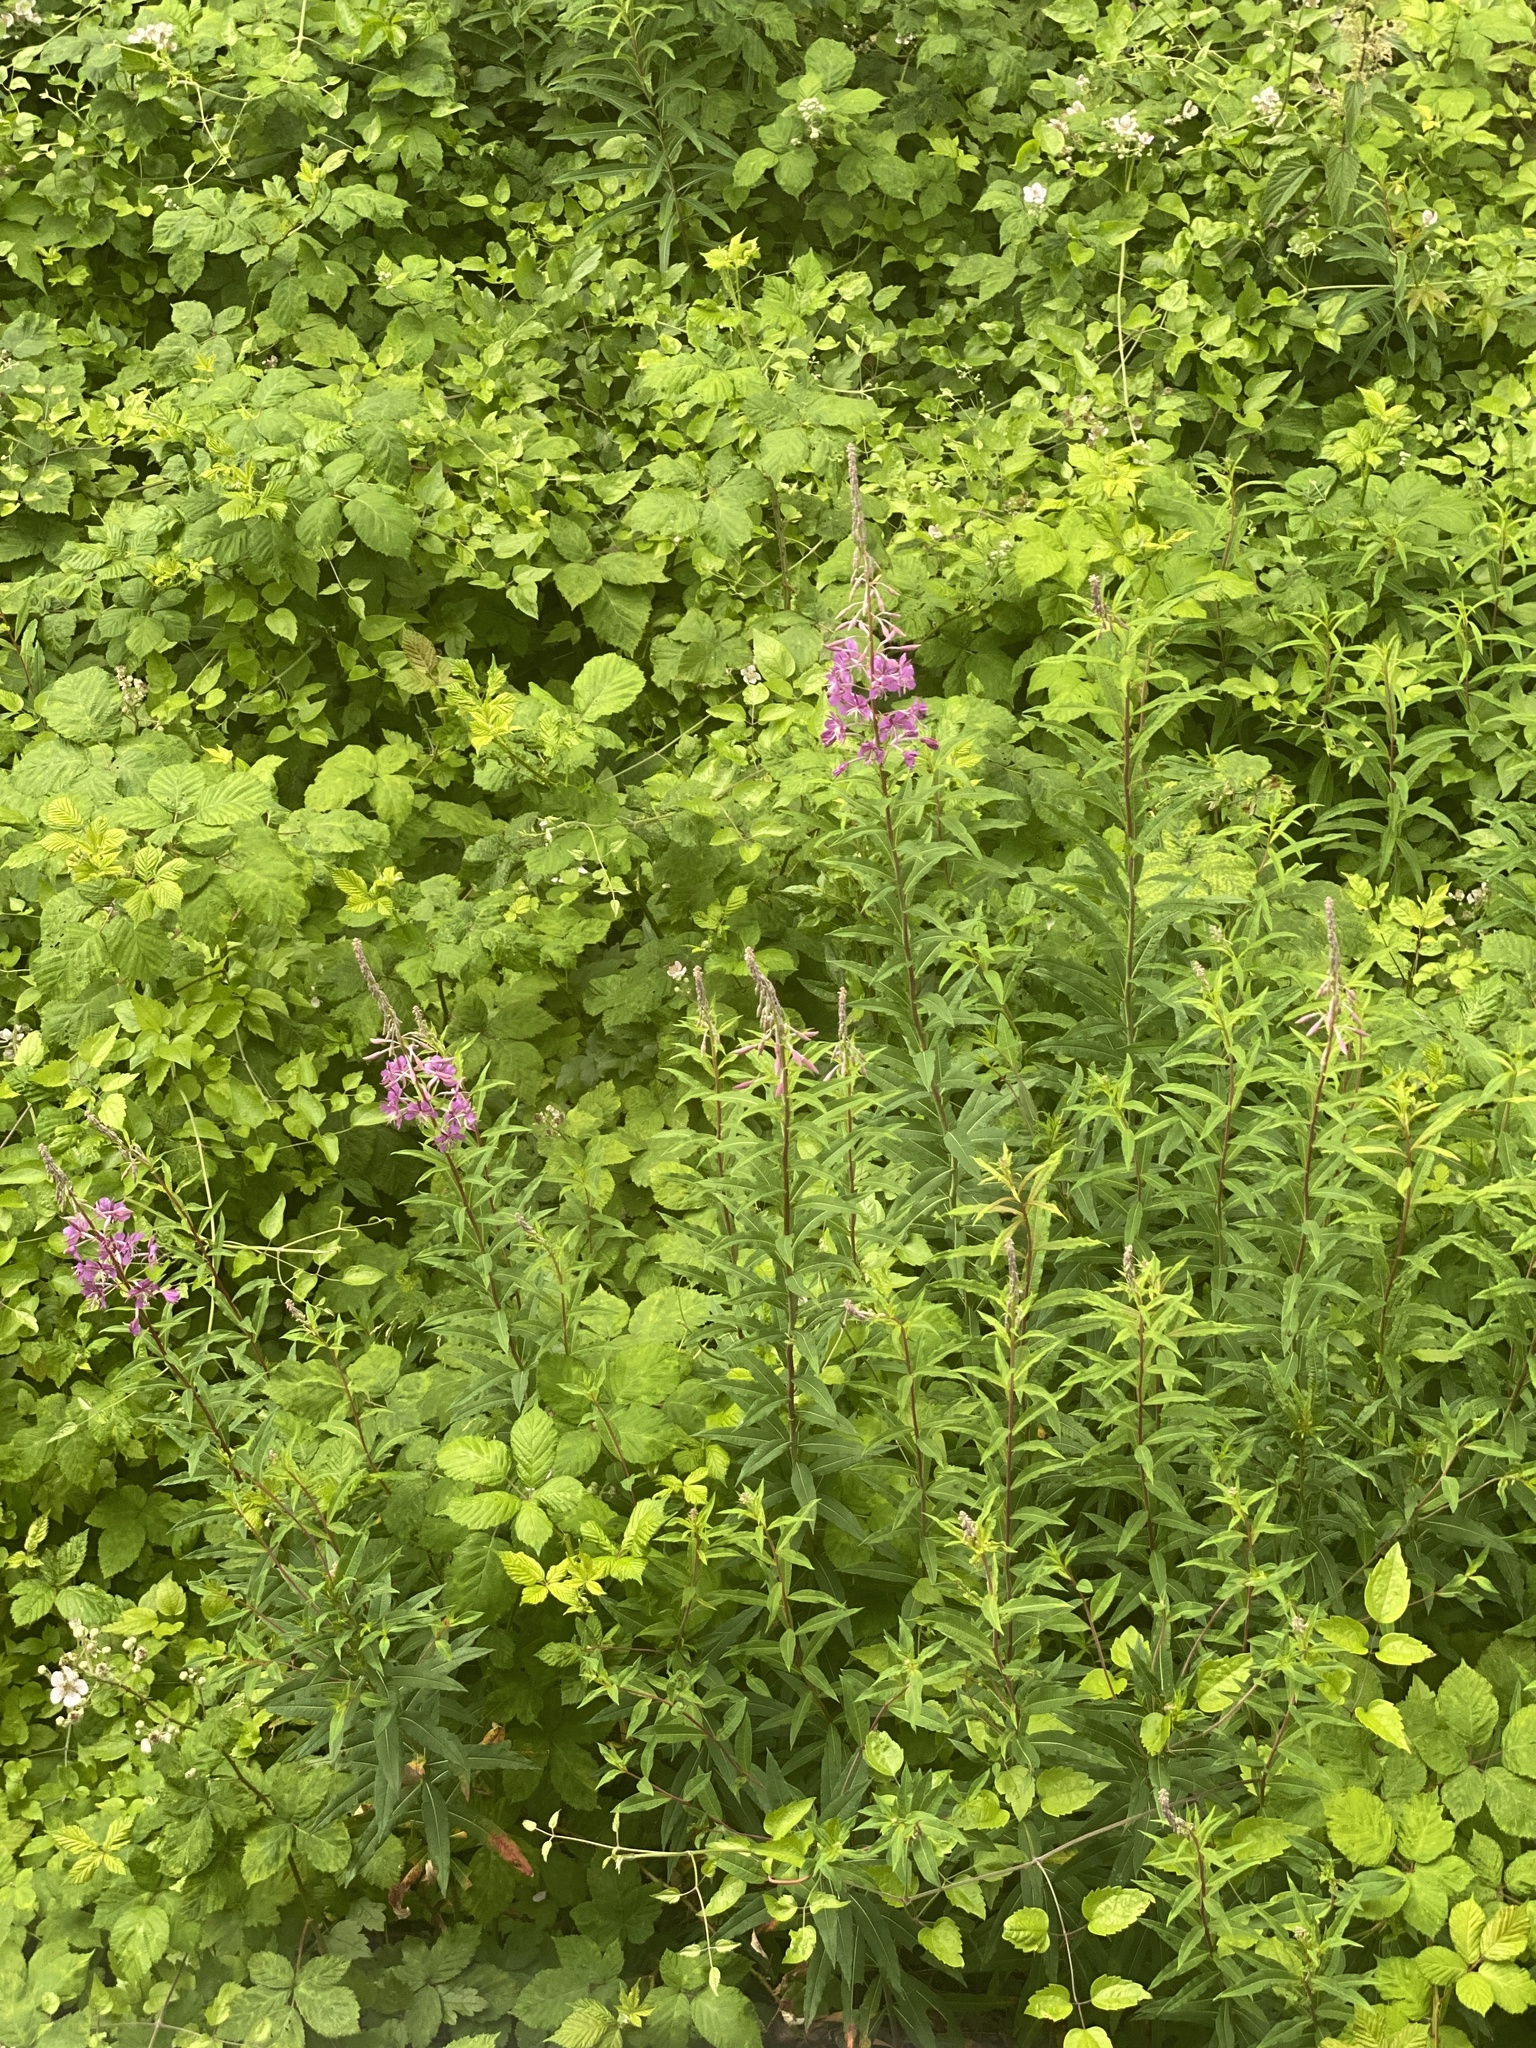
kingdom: Plantae
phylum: Tracheophyta
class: Magnoliopsida
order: Myrtales
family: Onagraceae
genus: Chamaenerion
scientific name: Chamaenerion angustifolium
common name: Fireweed
